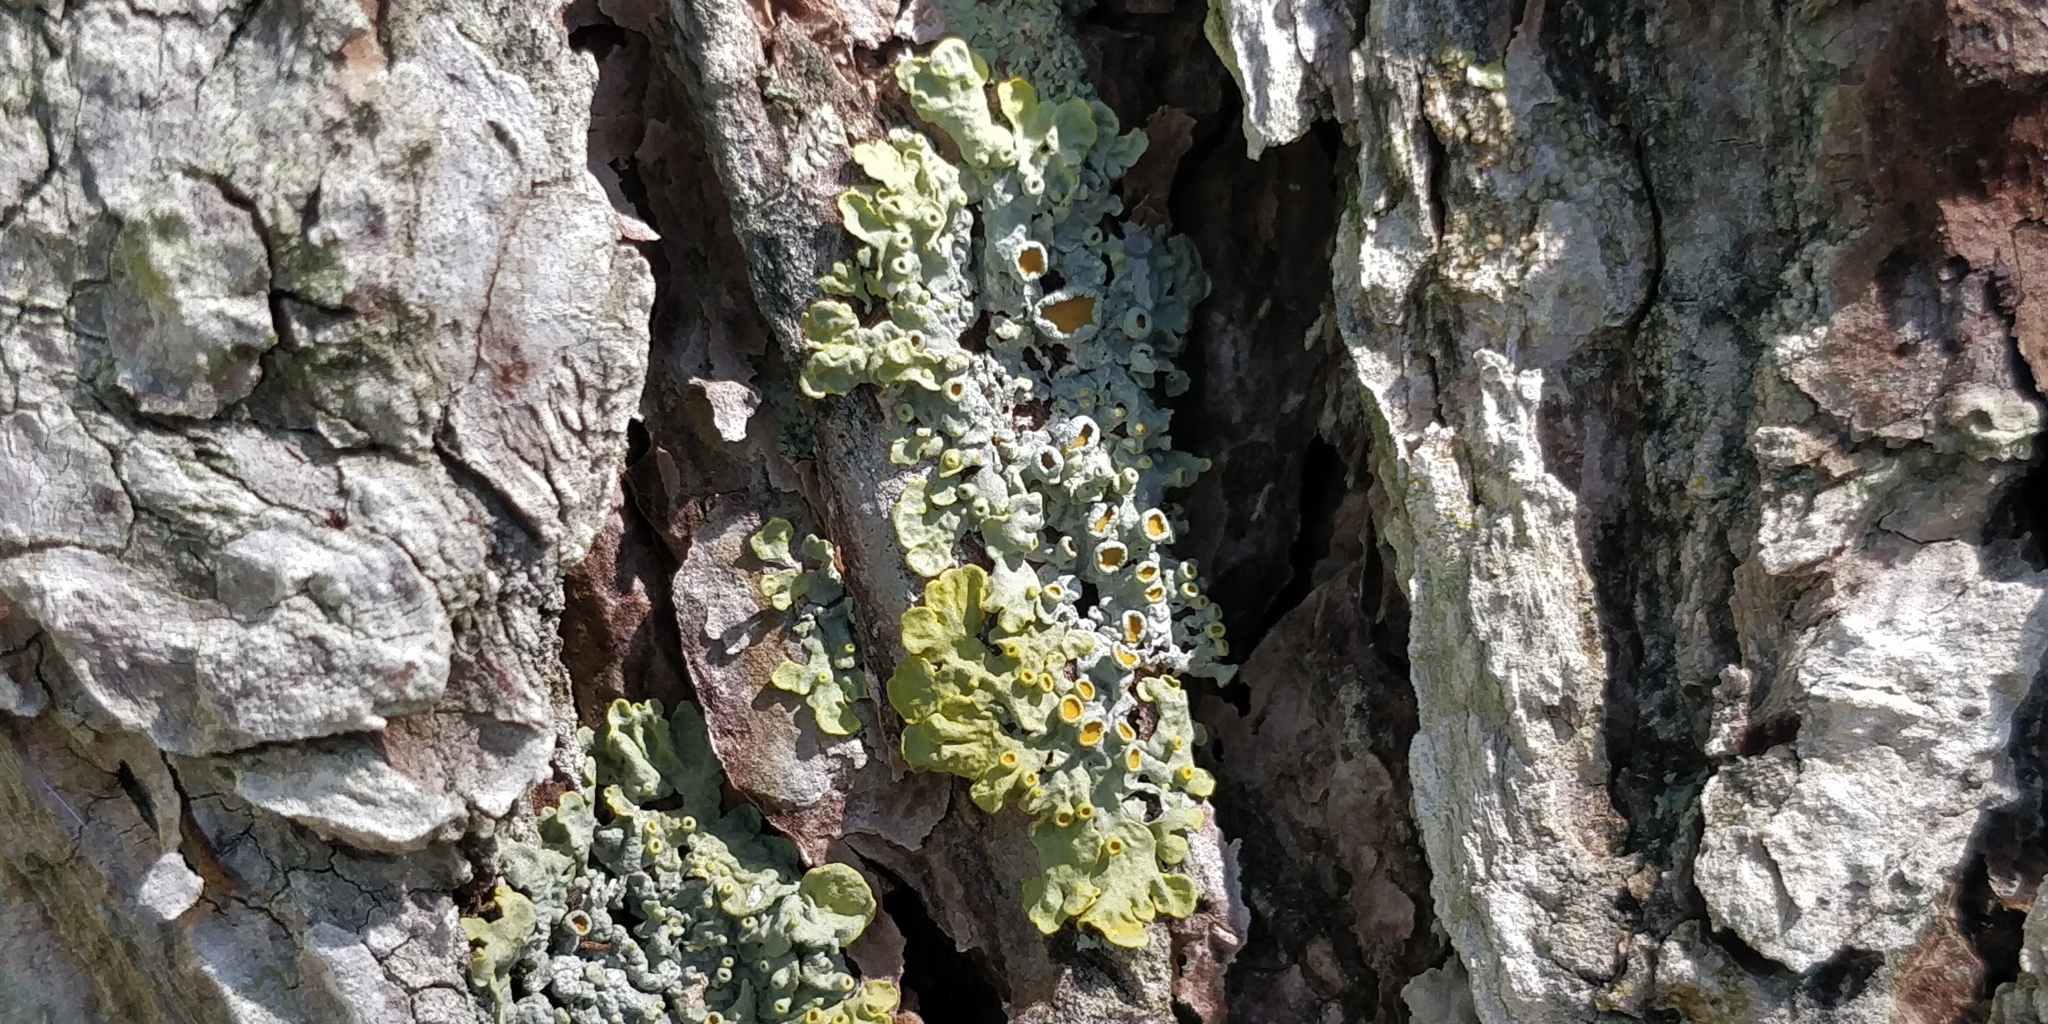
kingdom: Fungi
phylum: Ascomycota
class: Lecanoromycetes
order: Teloschistales
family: Teloschistaceae
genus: Xanthoria
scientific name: Xanthoria parietina
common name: Common orange lichen
